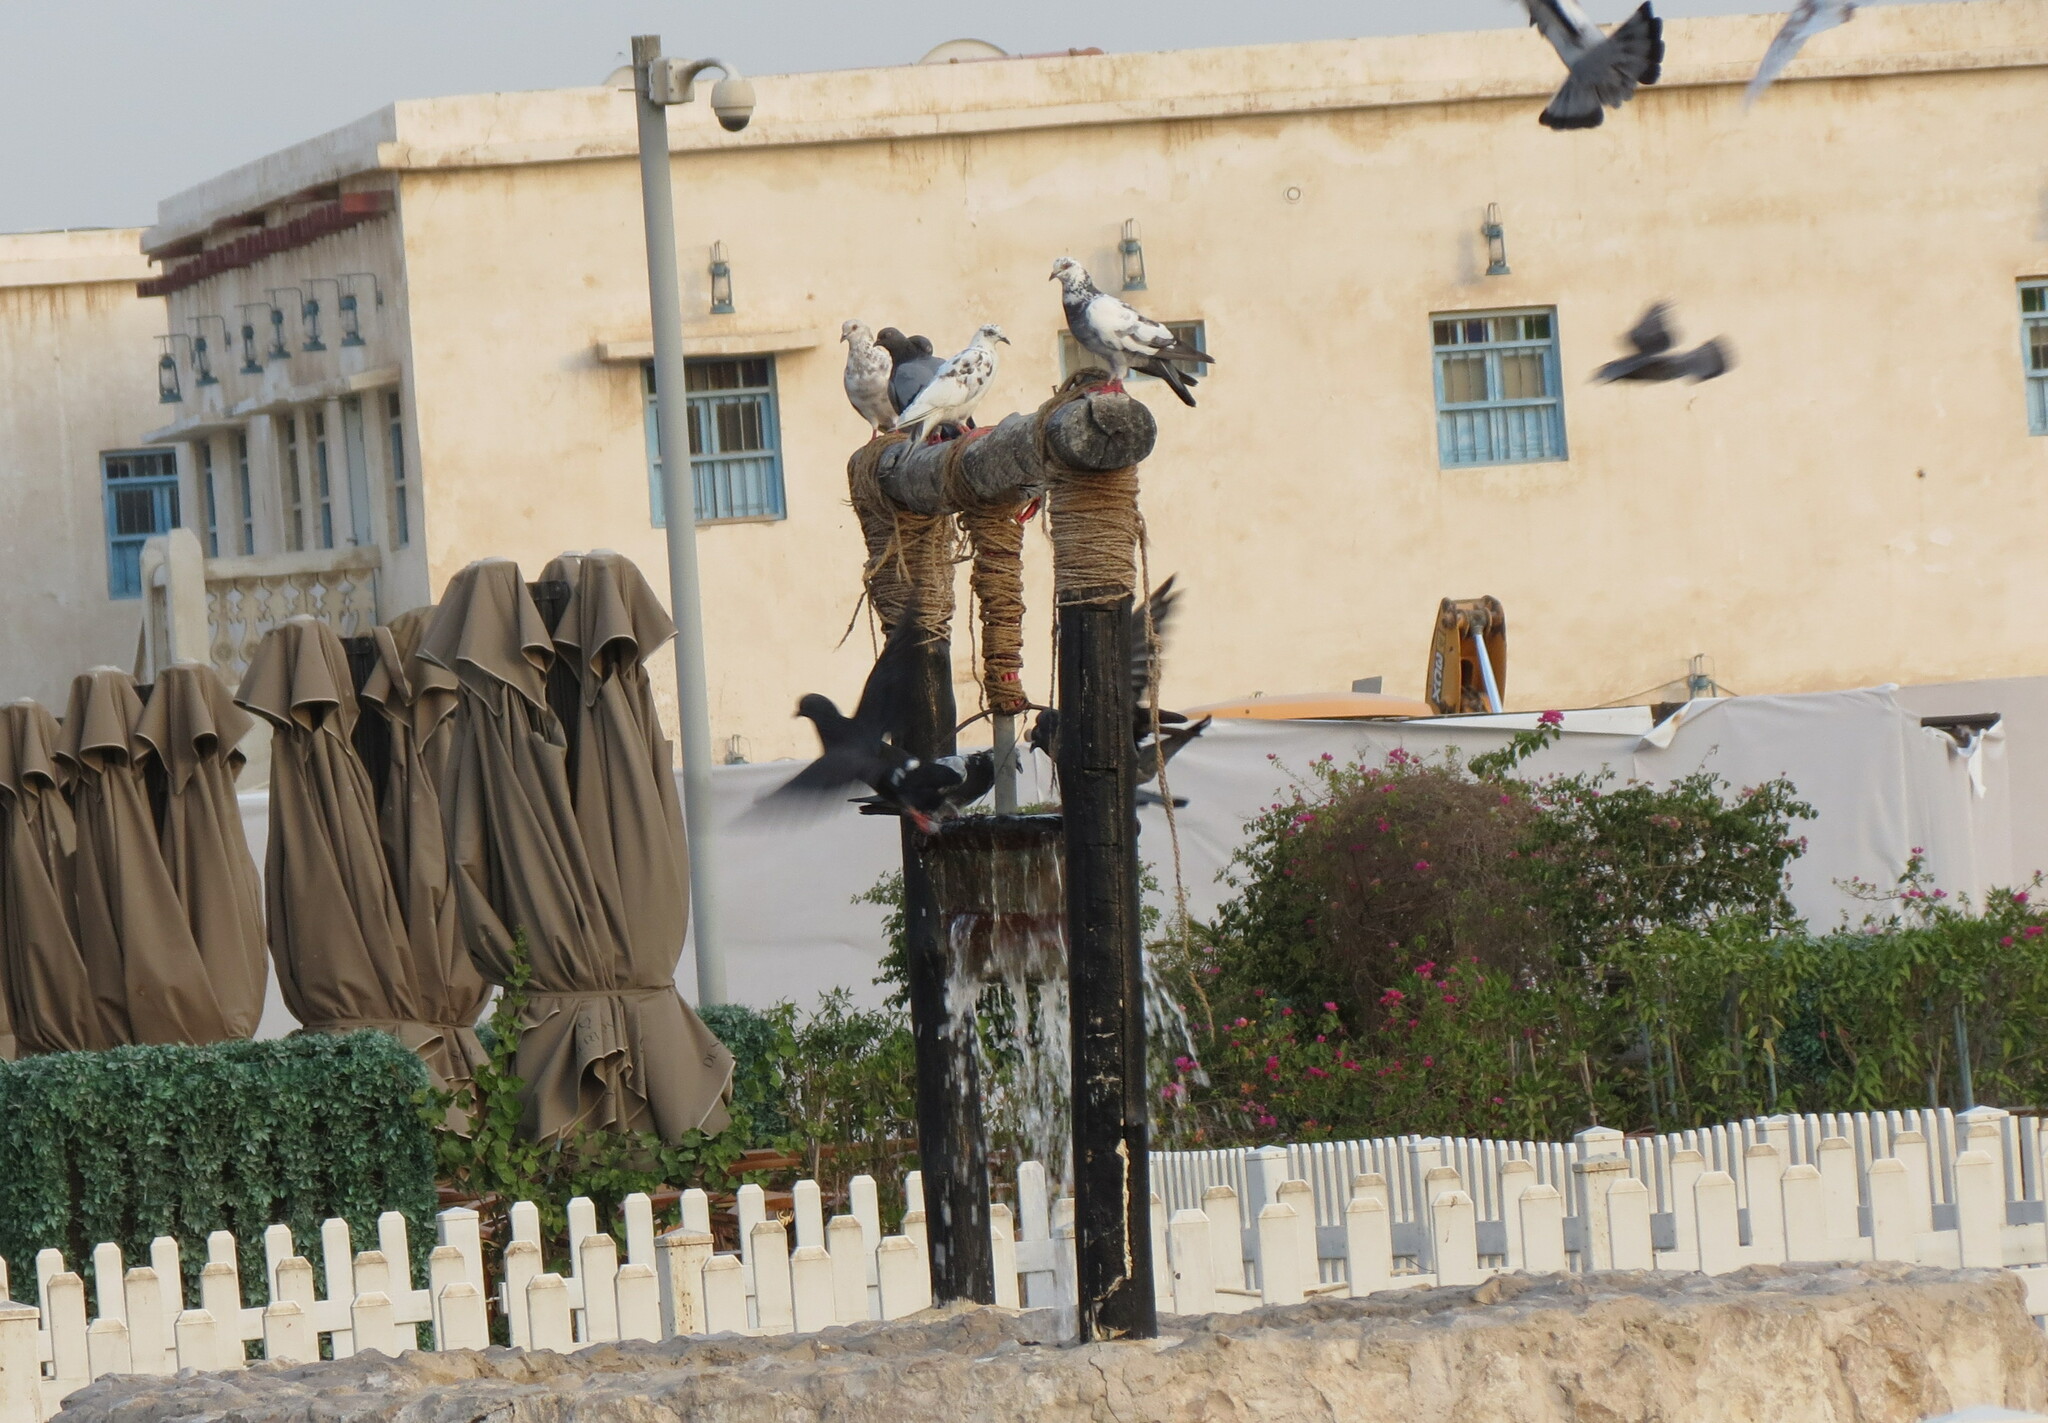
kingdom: Animalia
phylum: Chordata
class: Aves
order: Columbiformes
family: Columbidae
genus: Columba
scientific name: Columba livia
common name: Rock pigeon
